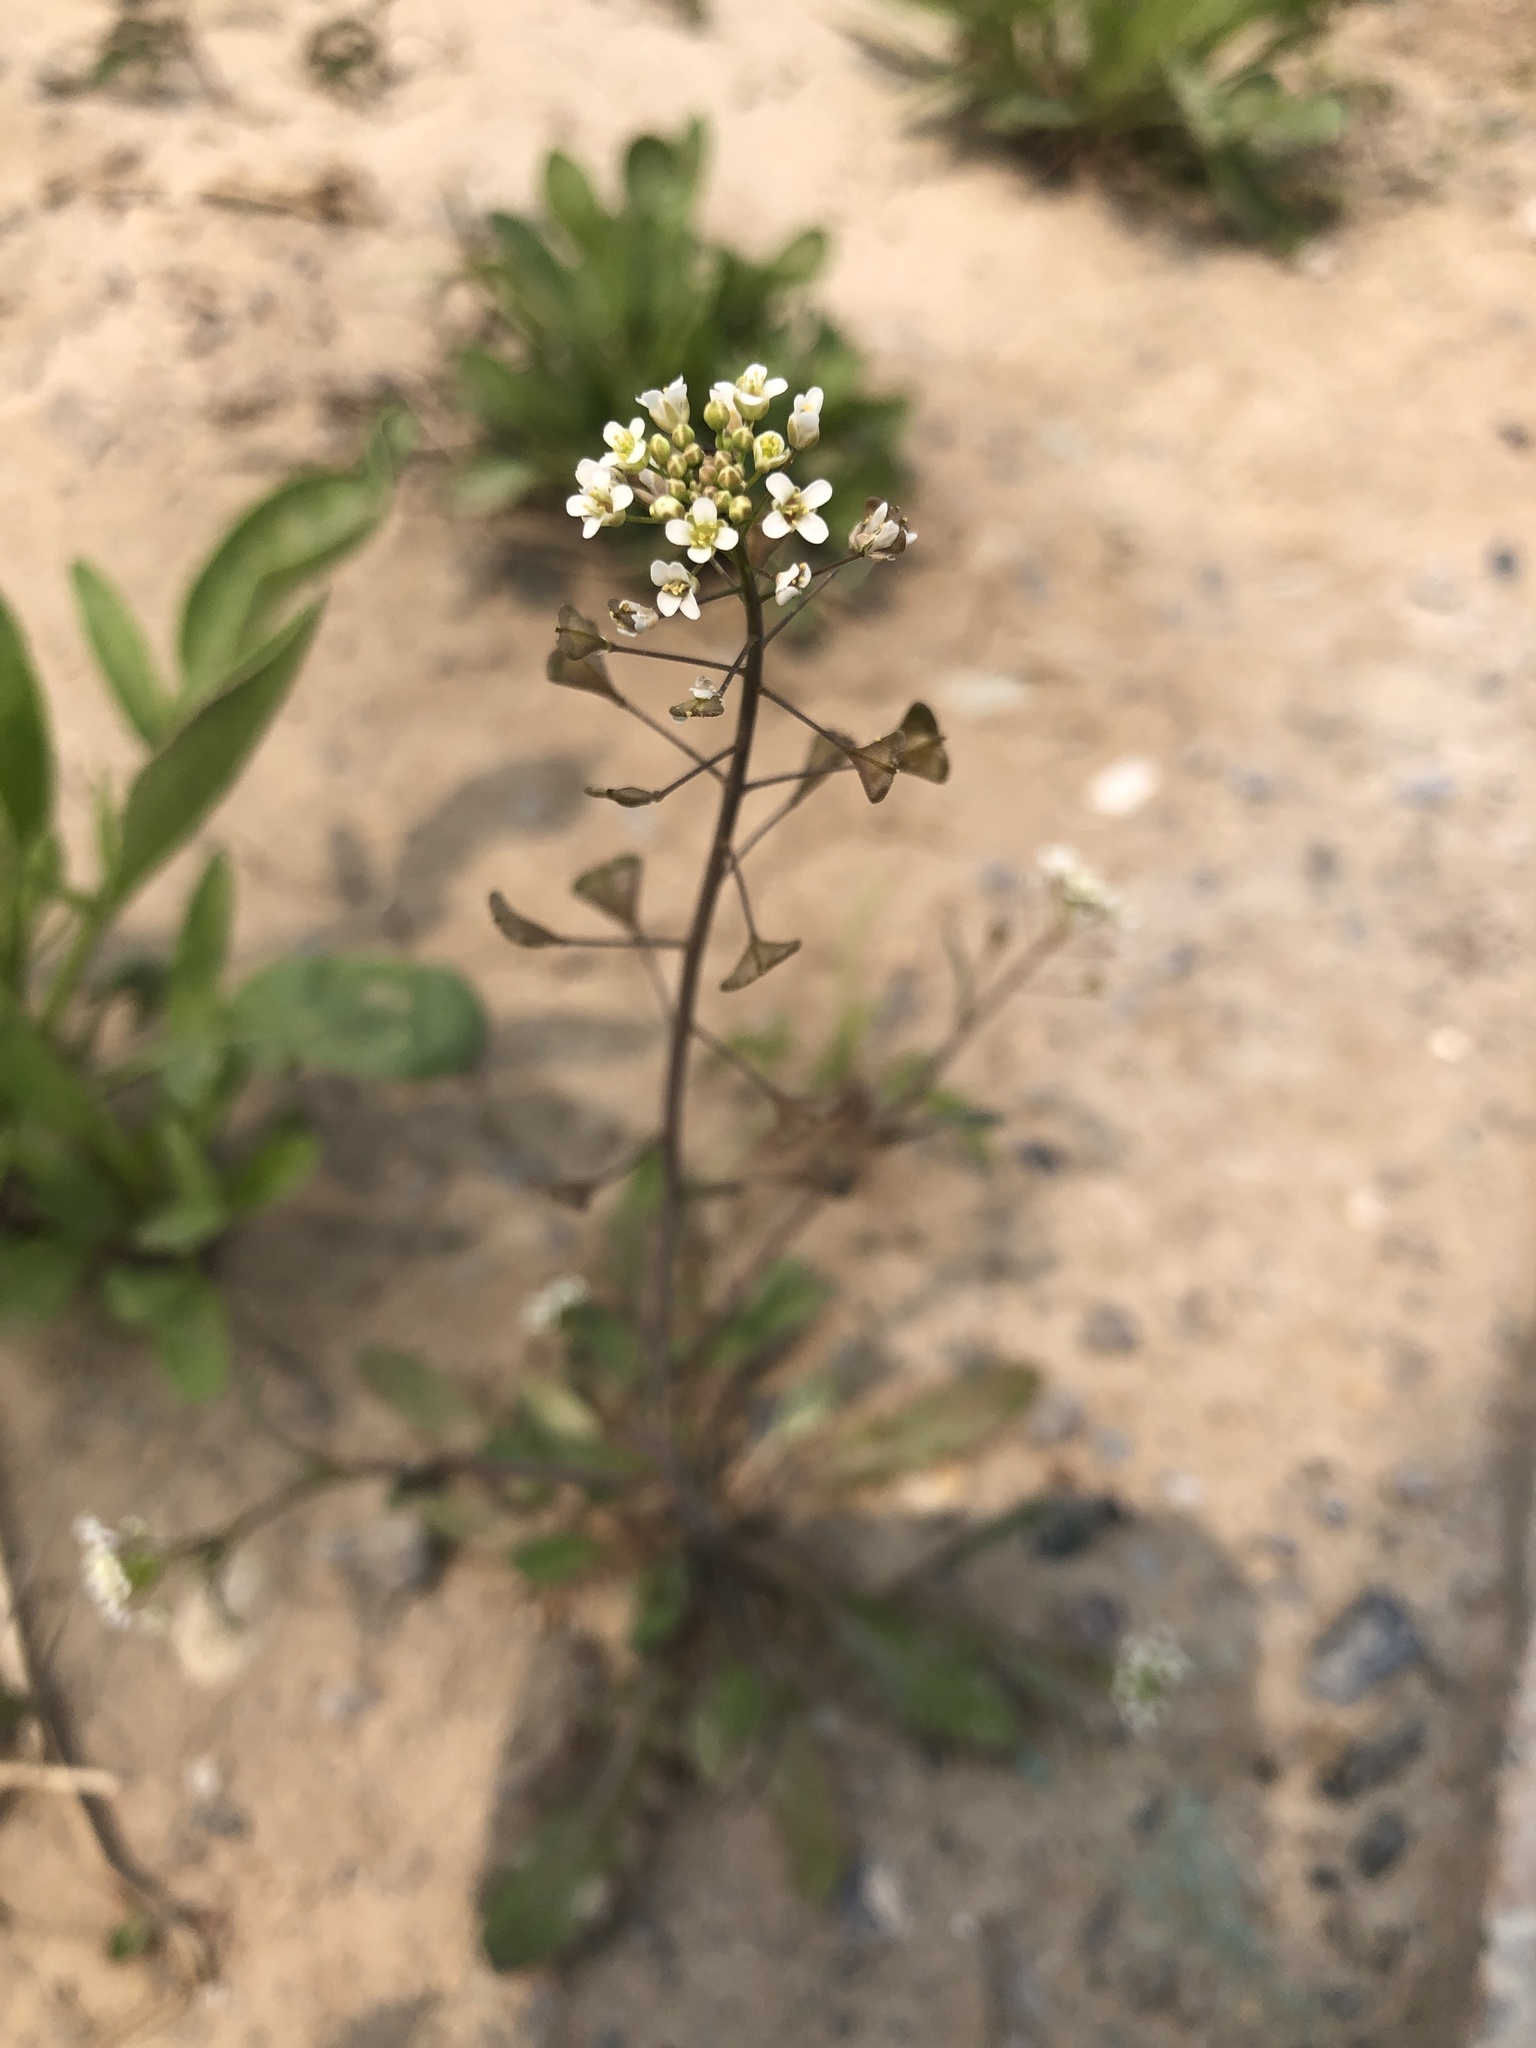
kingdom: Plantae
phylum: Tracheophyta
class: Magnoliopsida
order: Brassicales
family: Brassicaceae
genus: Capsella
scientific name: Capsella bursa-pastoris
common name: Shepherd's purse
